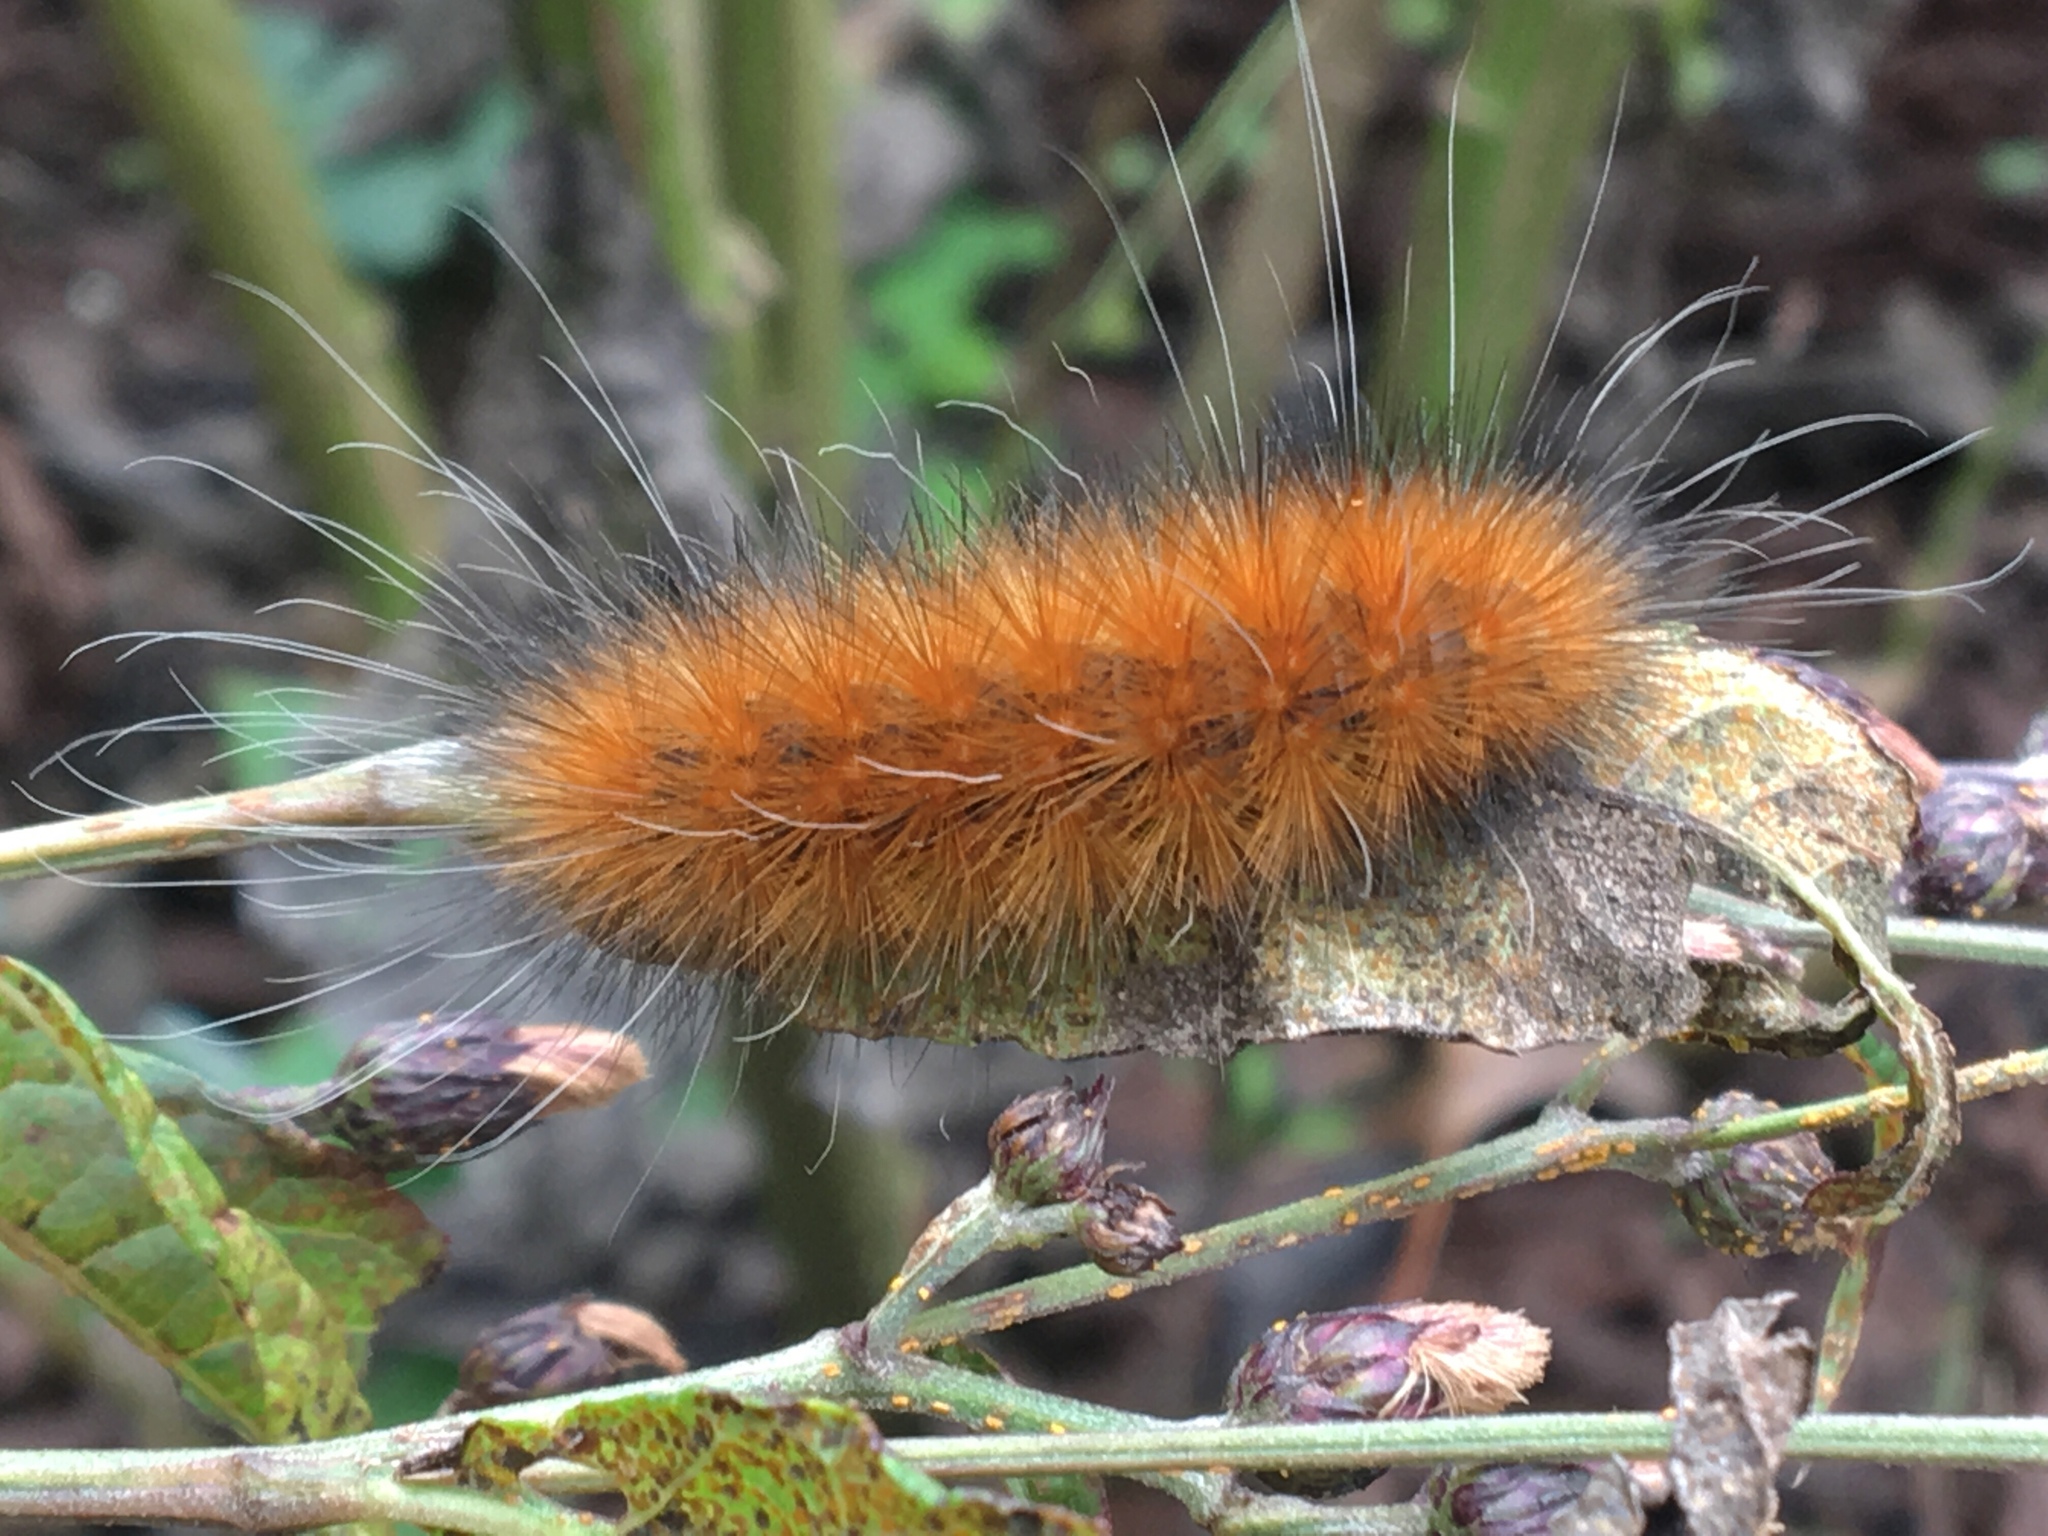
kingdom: Animalia
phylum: Arthropoda
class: Insecta
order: Lepidoptera
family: Erebidae
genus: Spilosoma
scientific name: Spilosoma virginica
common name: Virginia tiger moth
